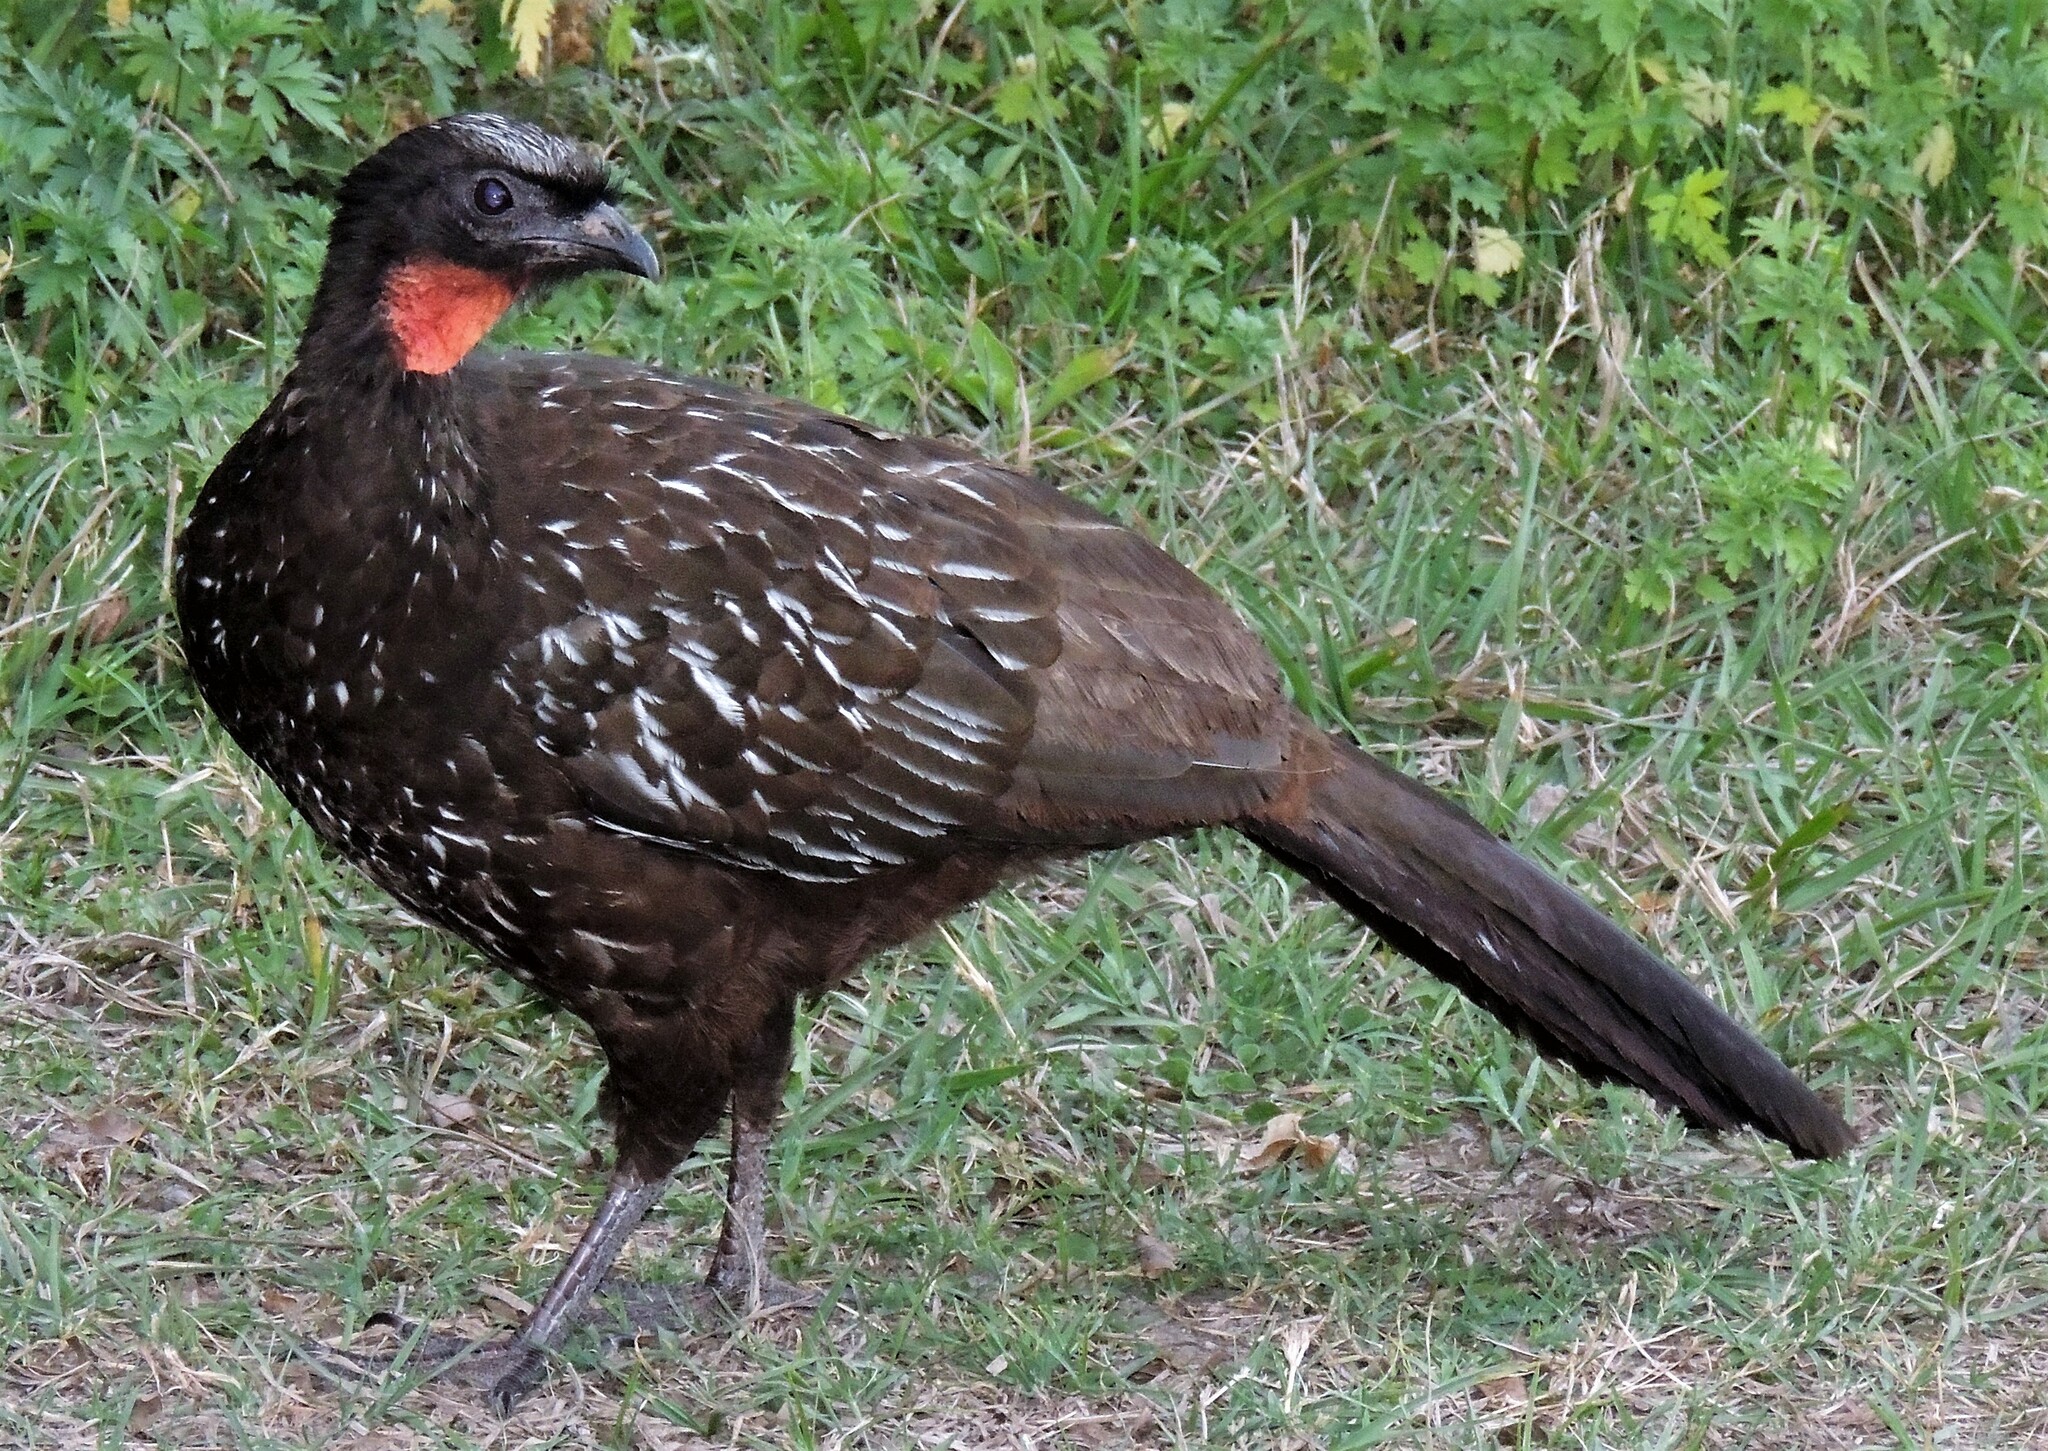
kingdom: Animalia
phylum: Chordata
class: Aves
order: Galliformes
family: Cracidae
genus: Penelope
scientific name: Penelope bridgesi
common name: Yungas guan
